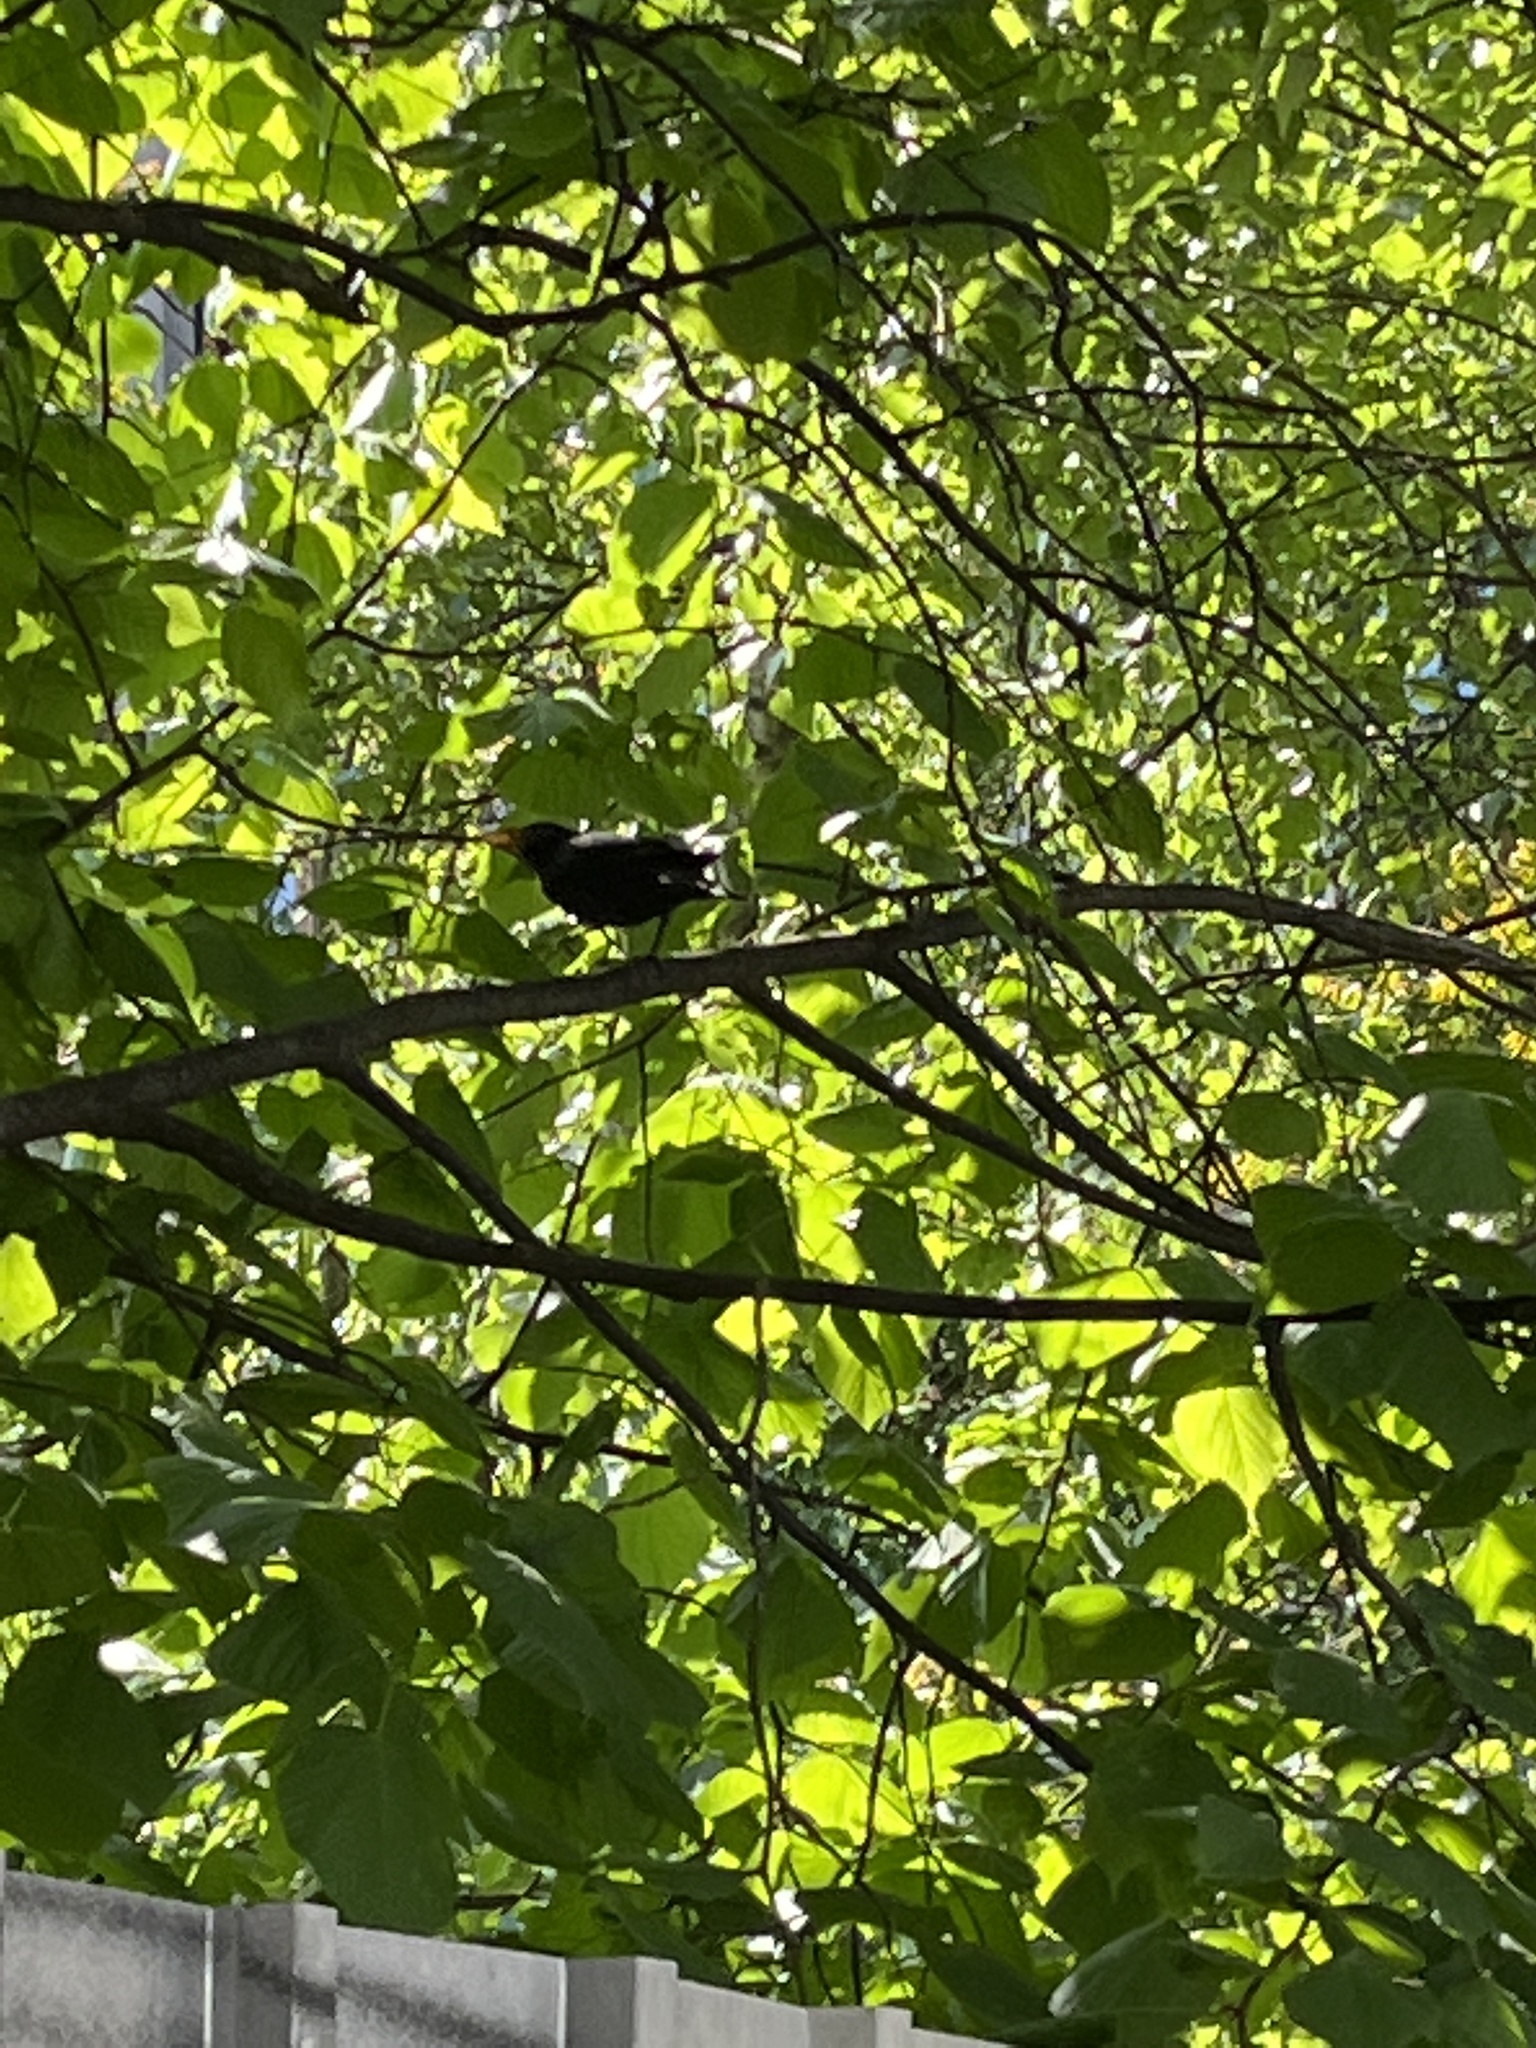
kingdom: Animalia
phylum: Chordata
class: Aves
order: Passeriformes
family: Turdidae
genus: Turdus
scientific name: Turdus merula
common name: Common blackbird
